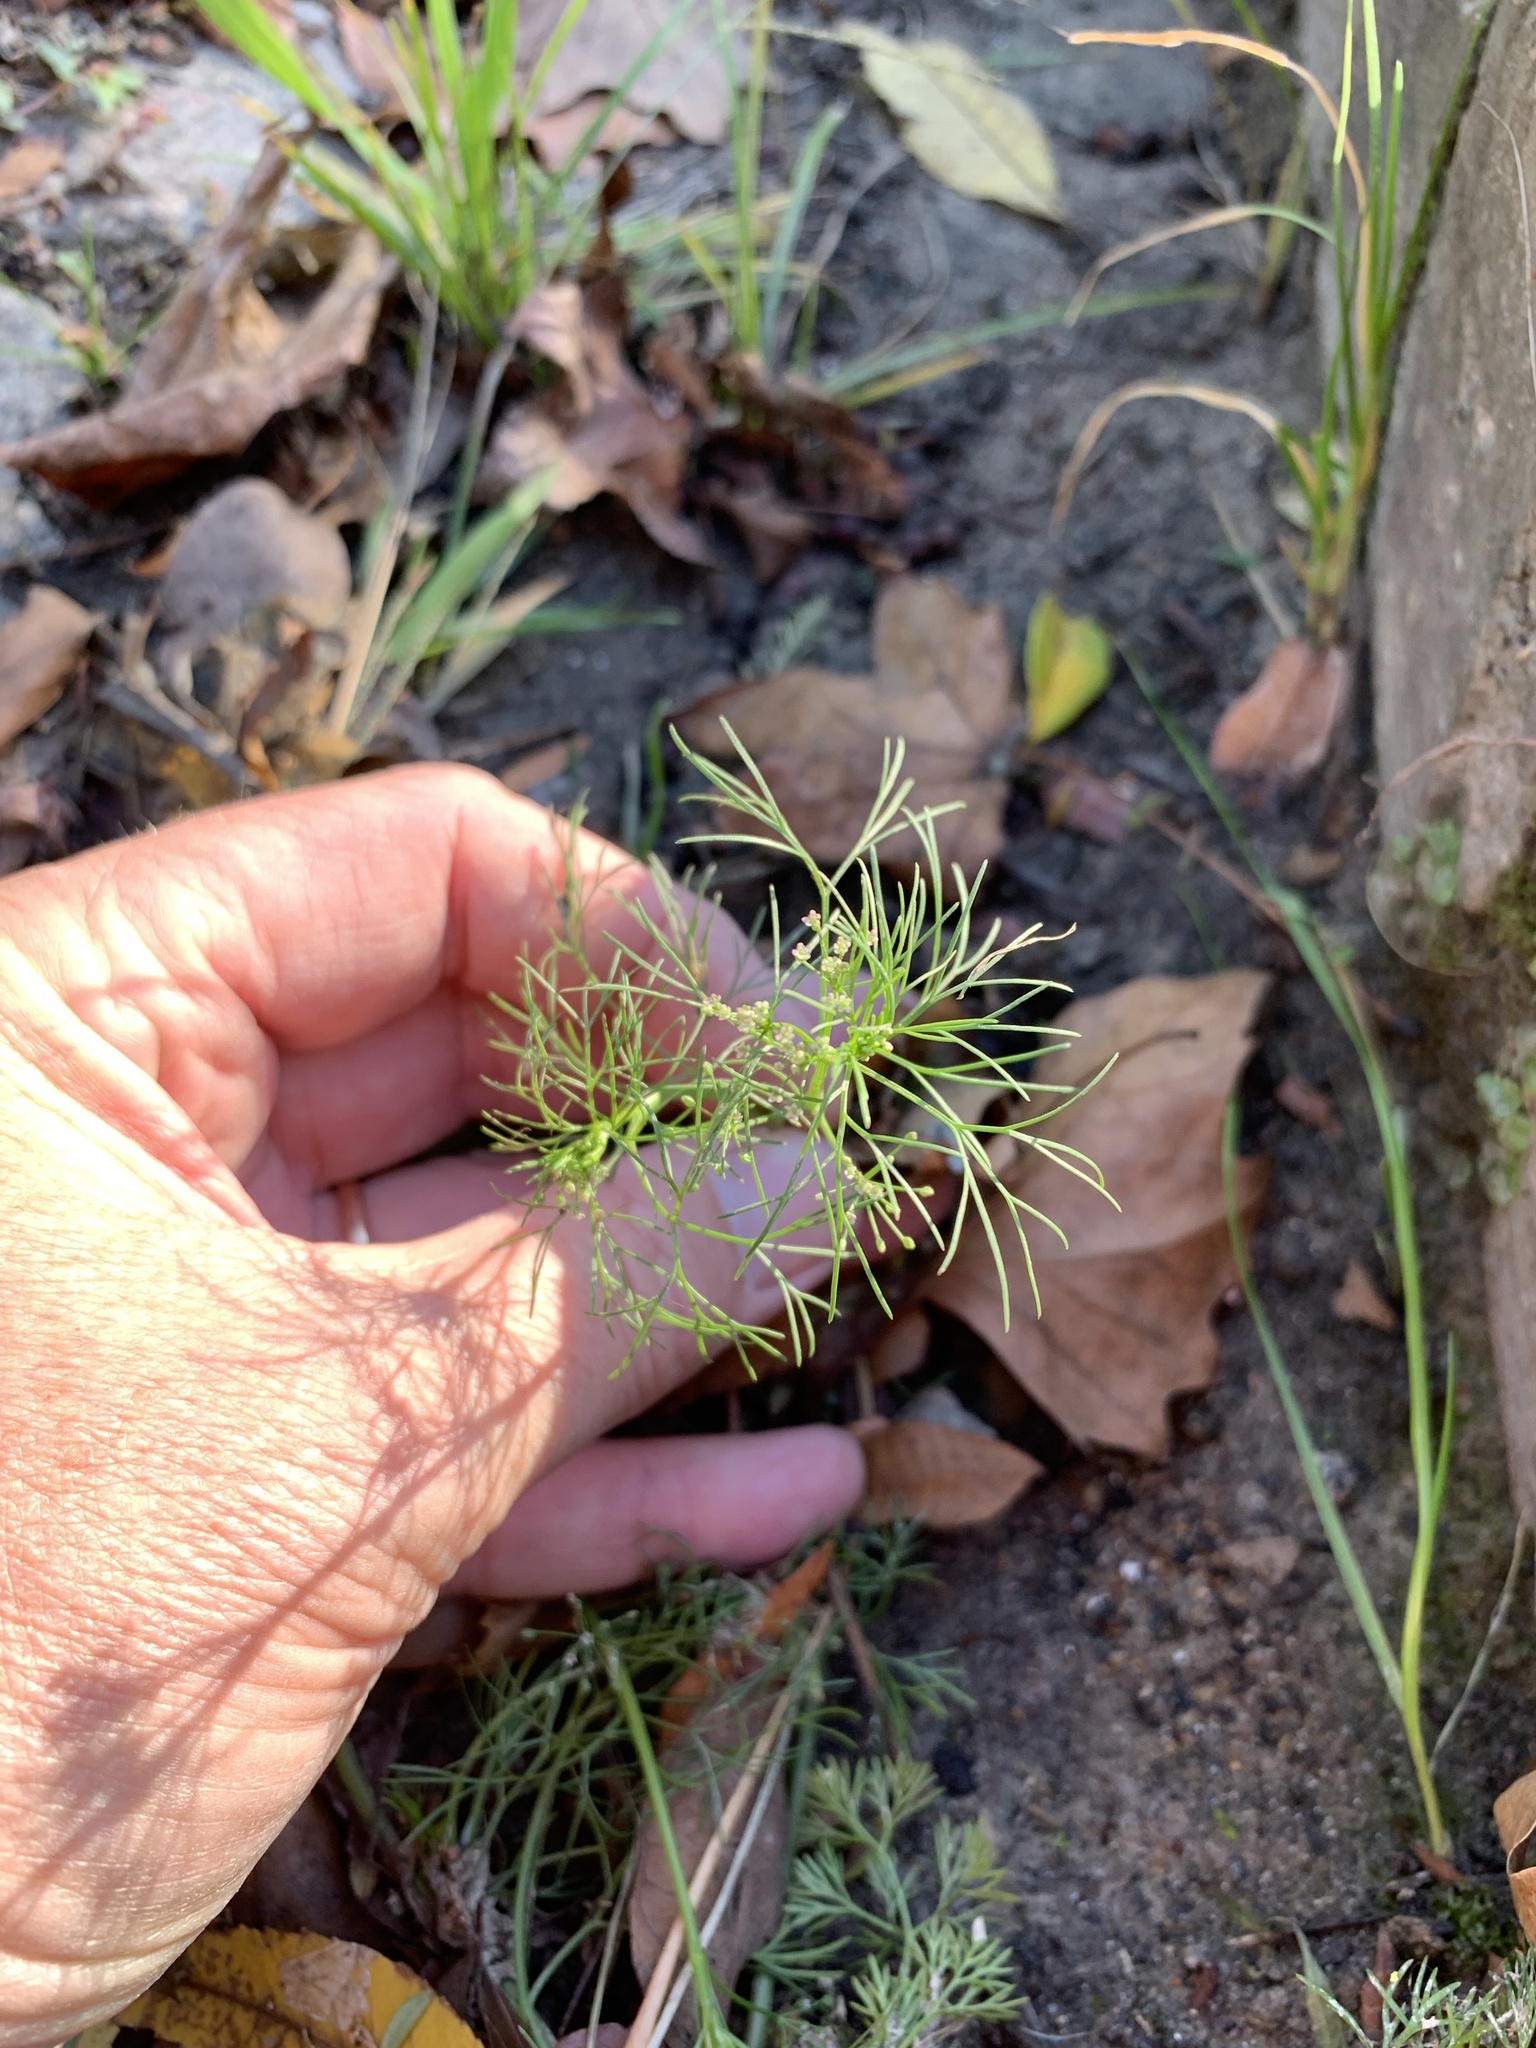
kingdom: Plantae
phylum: Tracheophyta
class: Magnoliopsida
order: Apiales
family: Apiaceae
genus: Cyclospermum
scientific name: Cyclospermum leptophyllum
